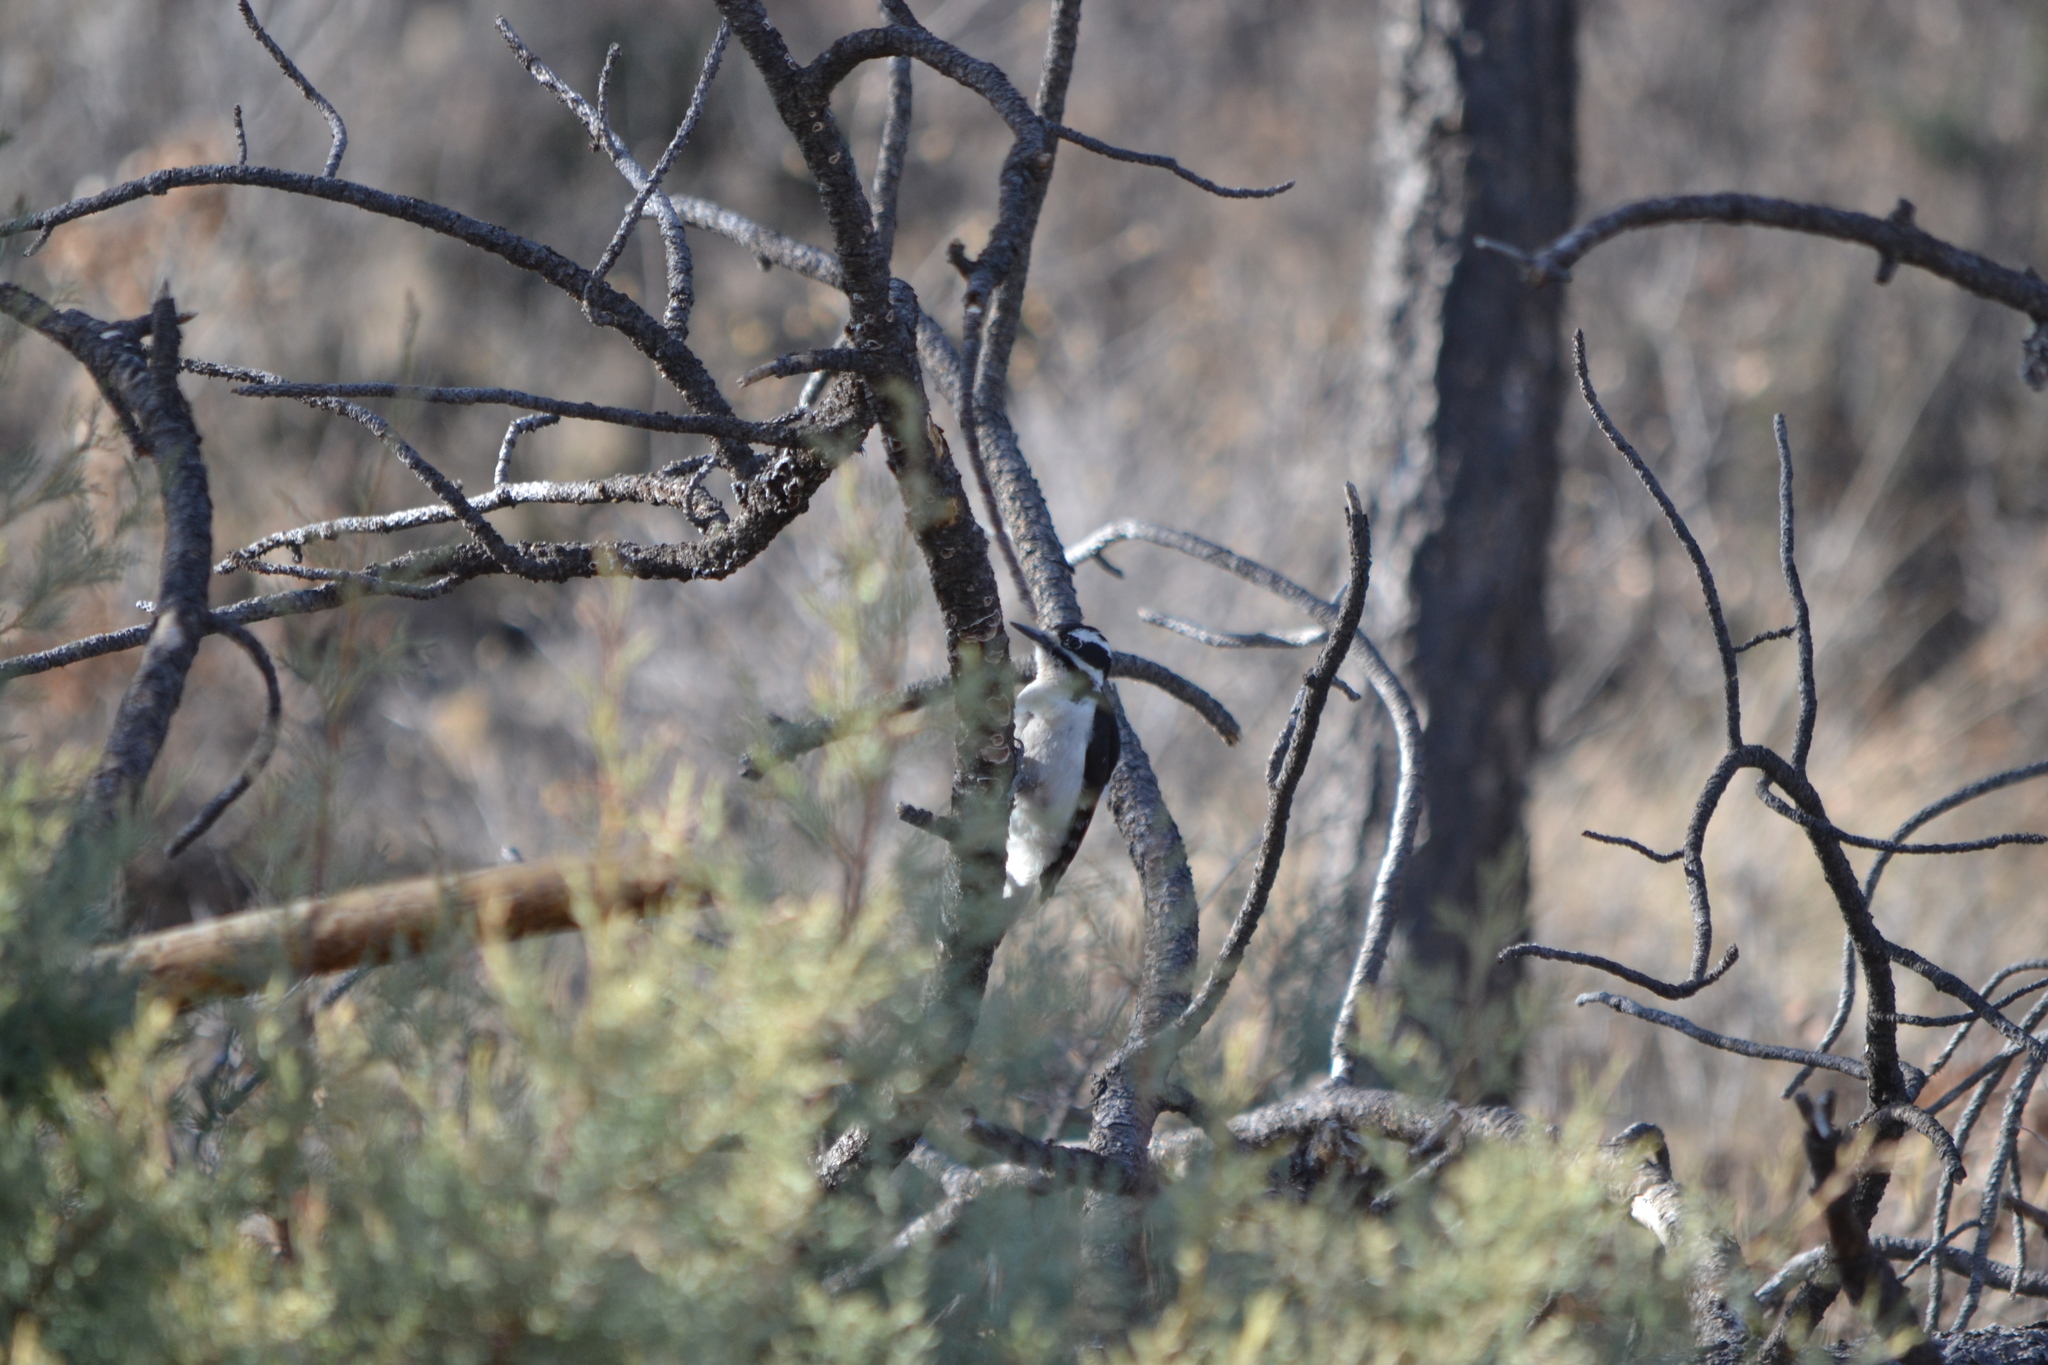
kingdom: Animalia
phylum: Chordata
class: Aves
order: Piciformes
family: Picidae
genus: Leuconotopicus
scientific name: Leuconotopicus villosus
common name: Hairy woodpecker
